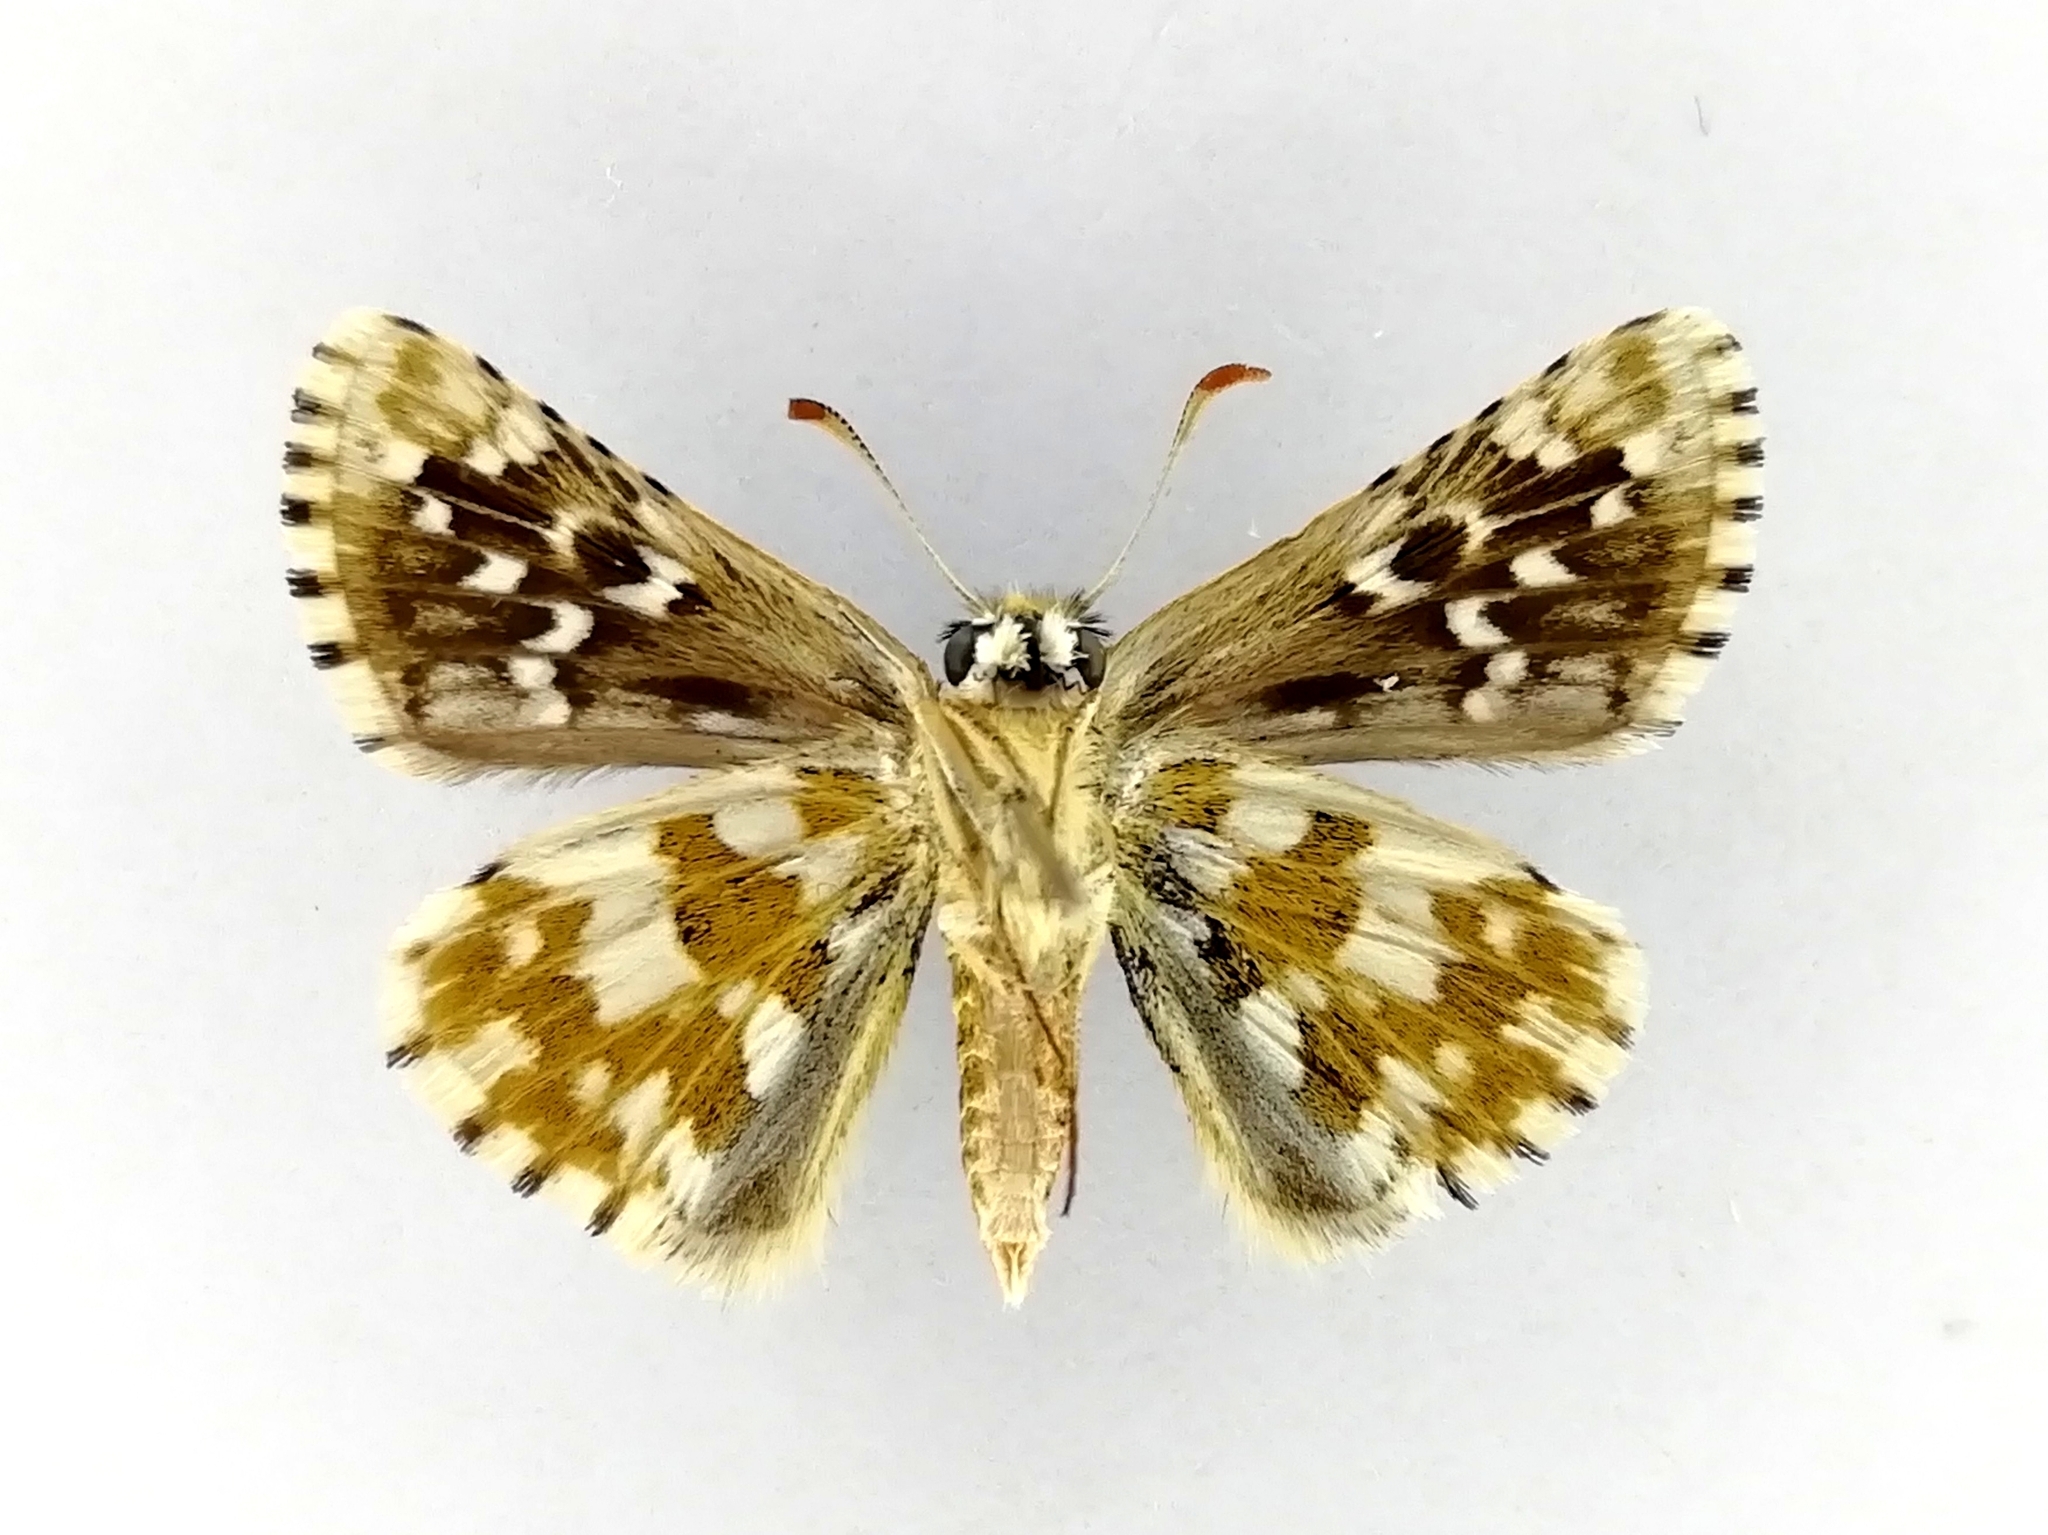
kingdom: Animalia
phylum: Arthropoda
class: Insecta
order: Lepidoptera
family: Hesperiidae
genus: Pyrgus
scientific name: Pyrgus alveus
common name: Large grizzled skipper
